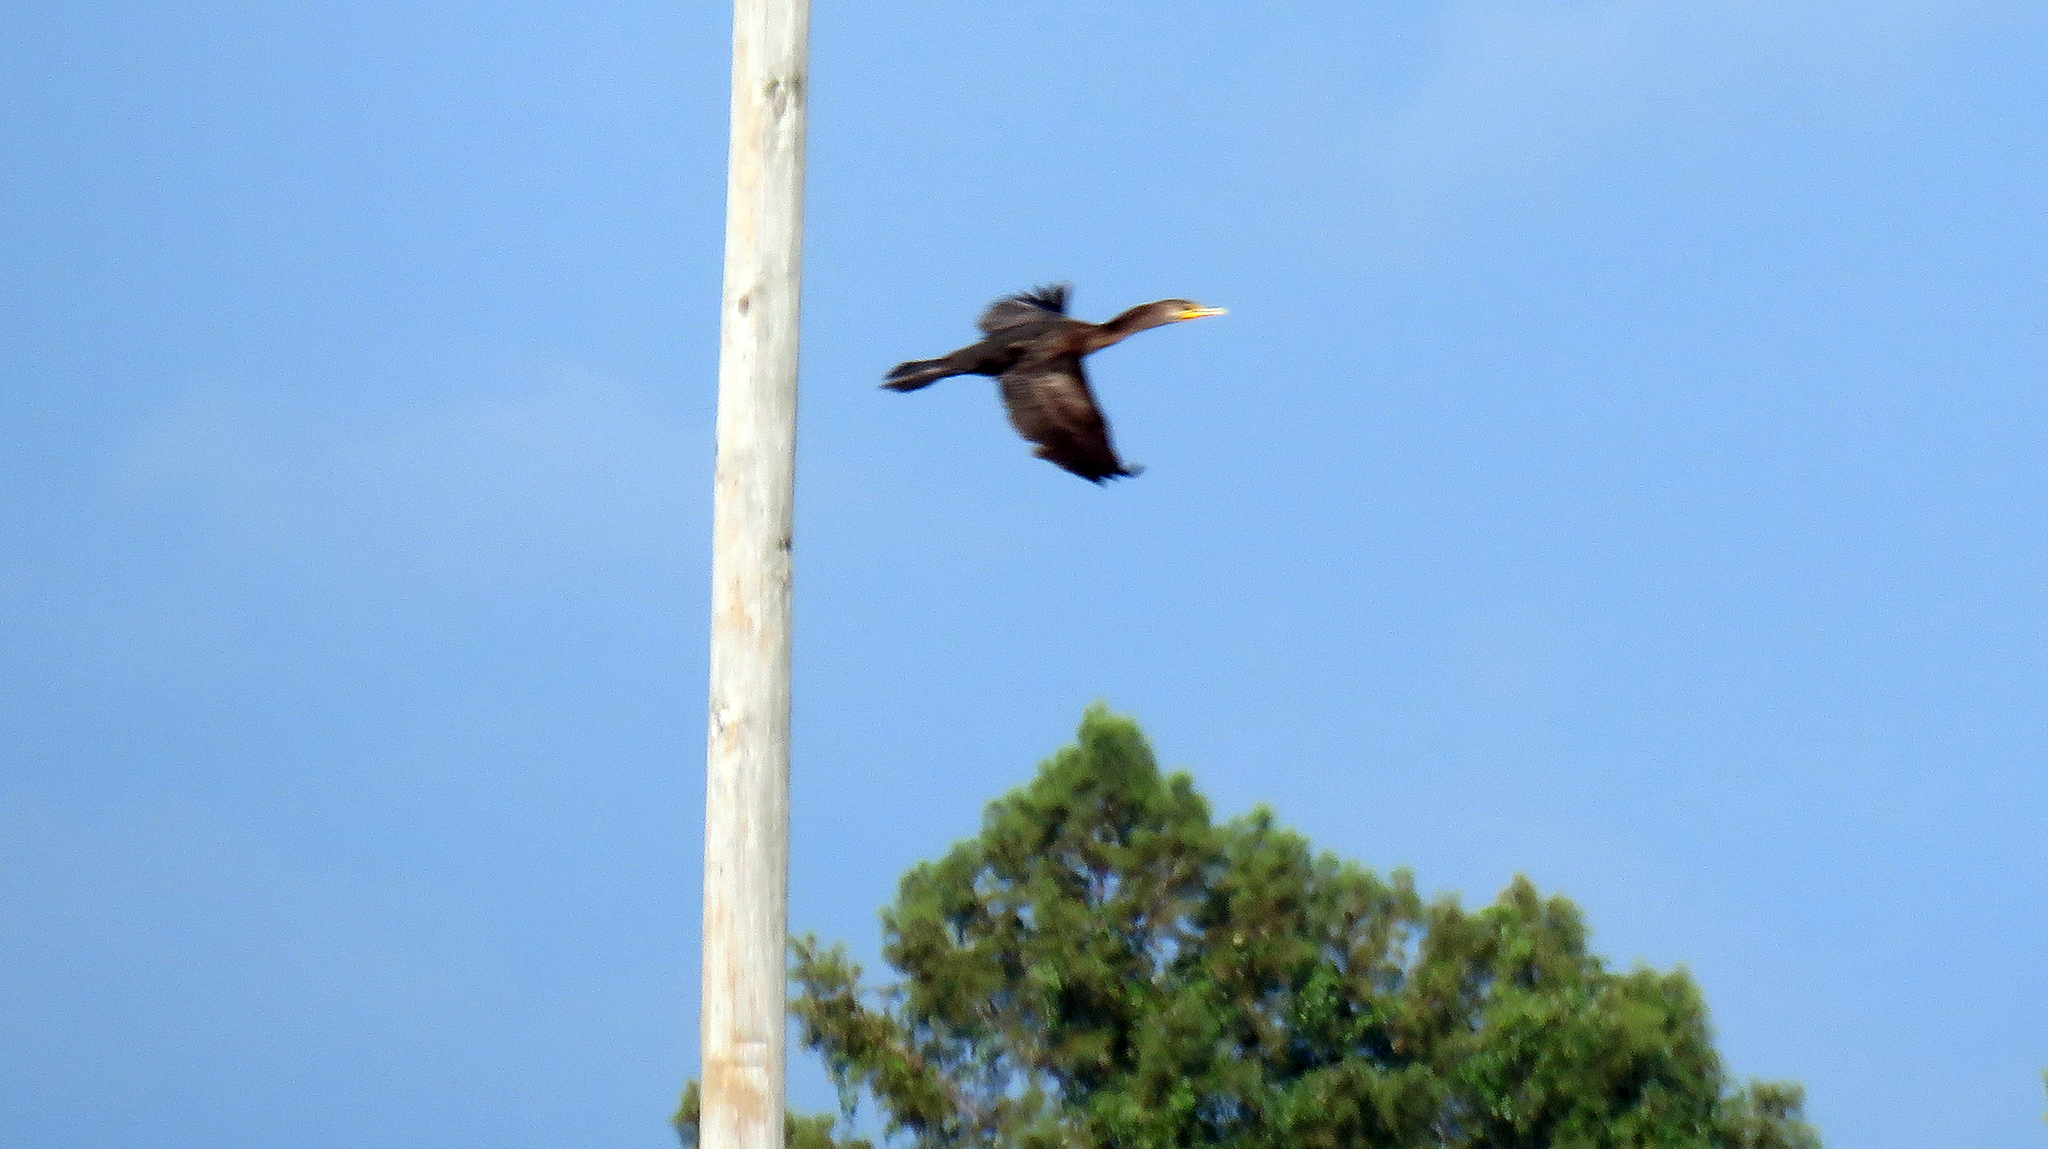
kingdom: Animalia
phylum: Chordata
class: Aves
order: Suliformes
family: Phalacrocoracidae
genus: Phalacrocorax
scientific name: Phalacrocorax auritus
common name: Double-crested cormorant
